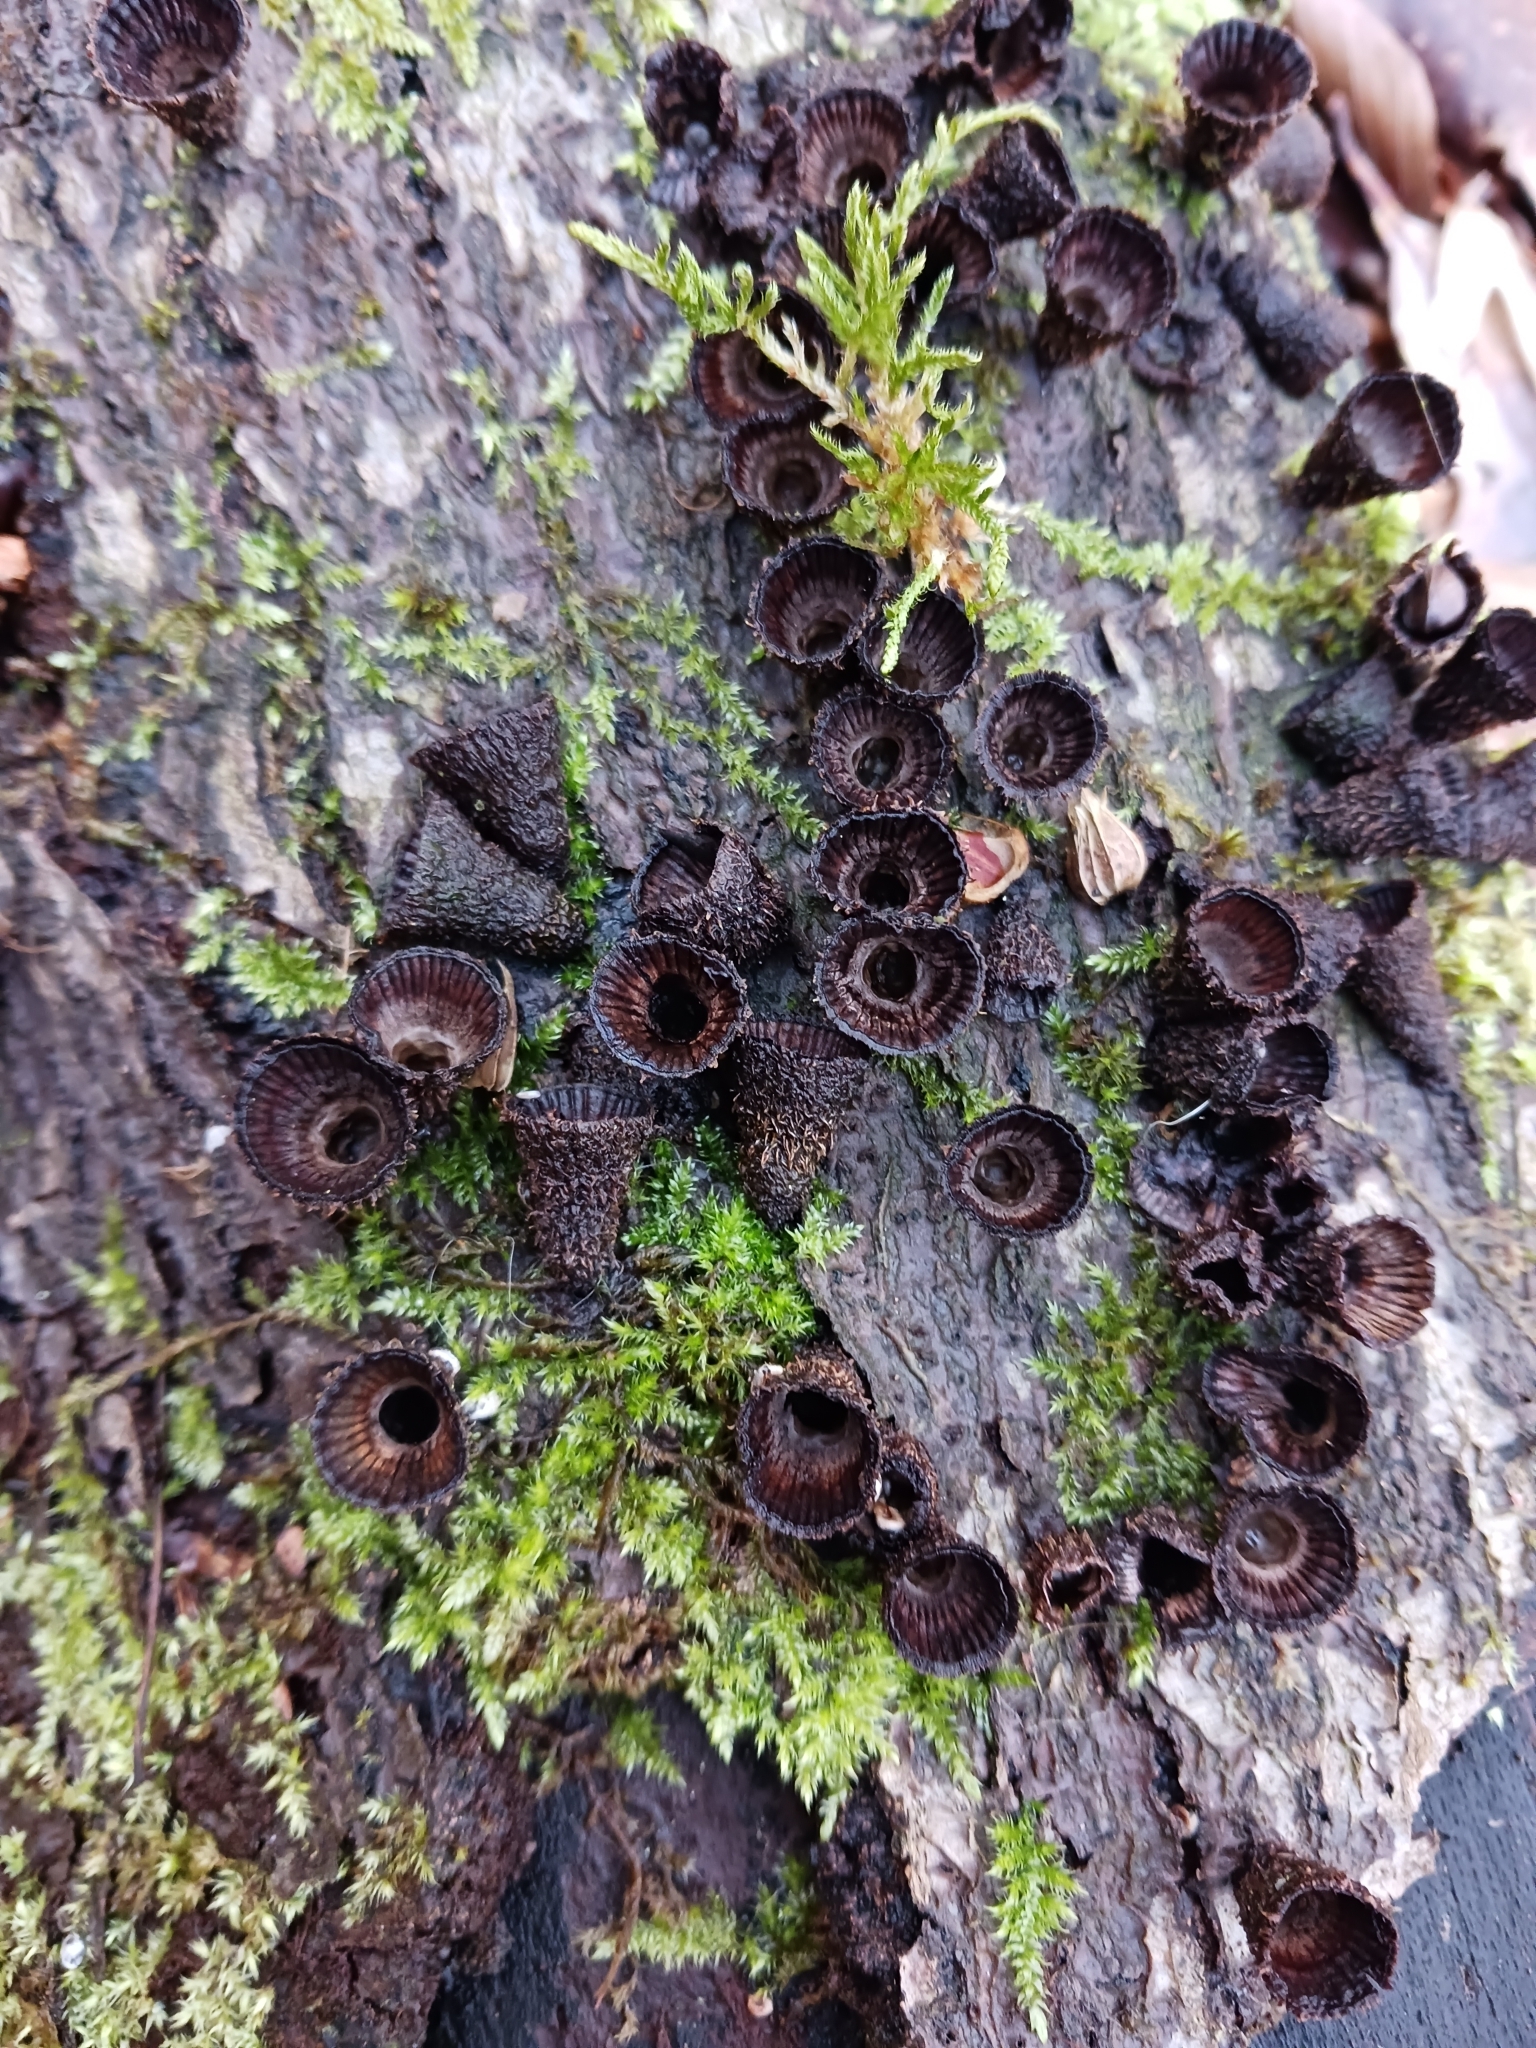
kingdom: Fungi
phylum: Basidiomycota
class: Agaricomycetes
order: Agaricales
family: Agaricaceae
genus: Cyathus
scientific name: Cyathus striatus
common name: Fluted bird's nest
